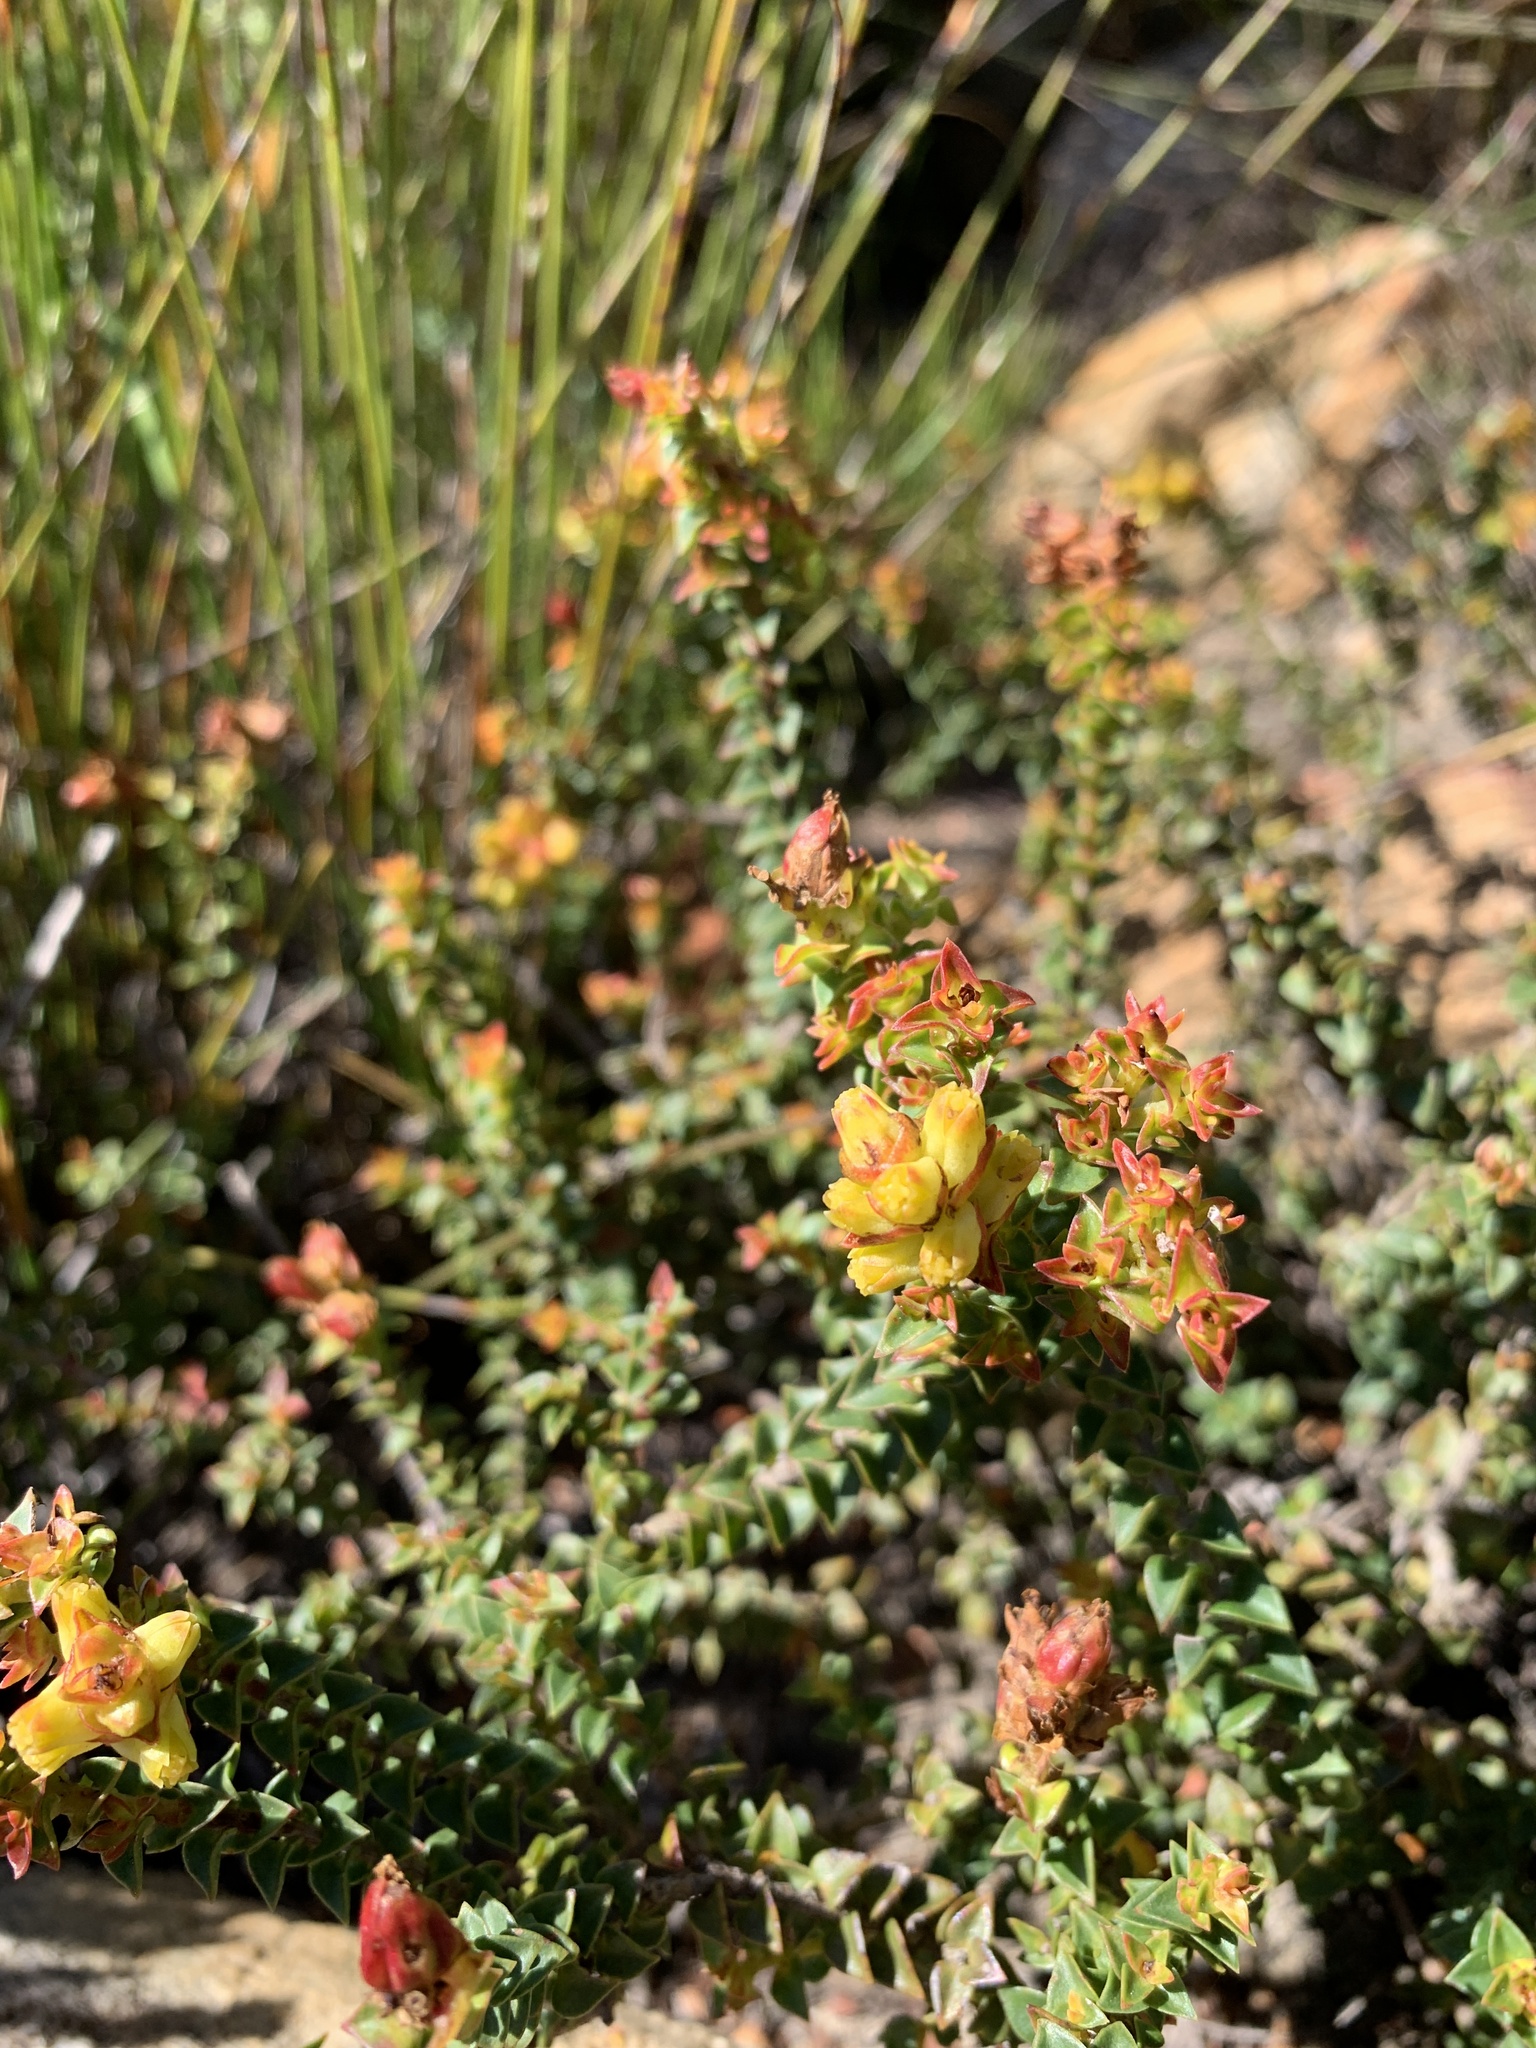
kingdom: Plantae
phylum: Tracheophyta
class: Magnoliopsida
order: Myrtales
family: Penaeaceae
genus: Penaea
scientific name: Penaea mucronata
